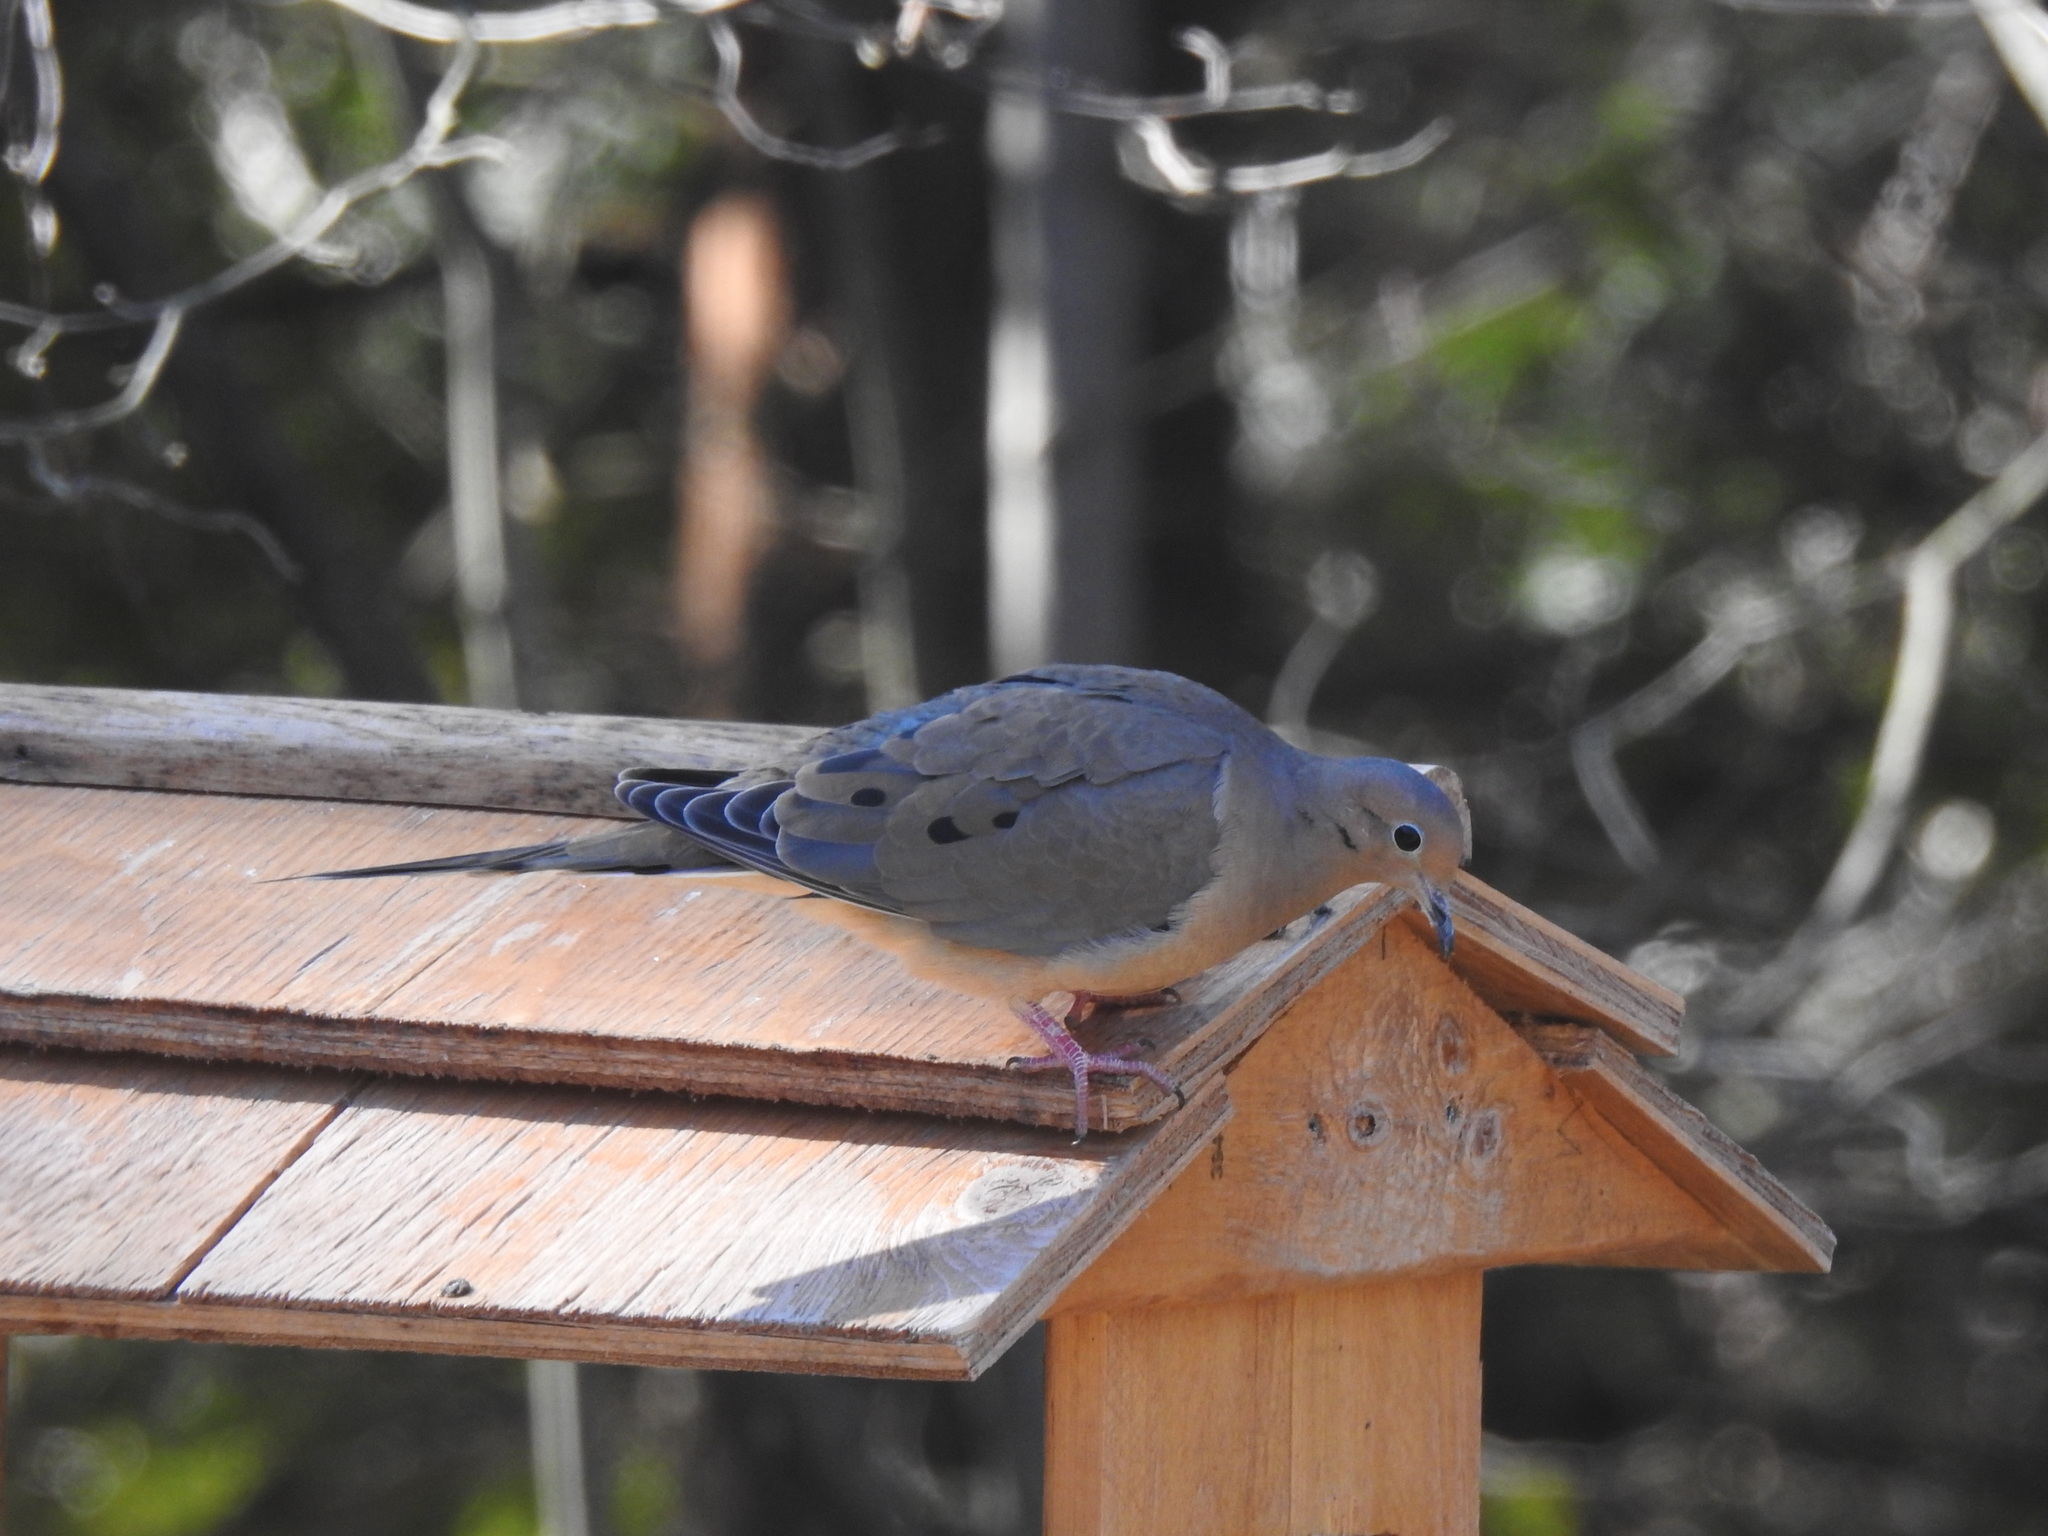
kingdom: Animalia
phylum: Chordata
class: Aves
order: Columbiformes
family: Columbidae
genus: Zenaida
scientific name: Zenaida macroura
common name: Mourning dove
